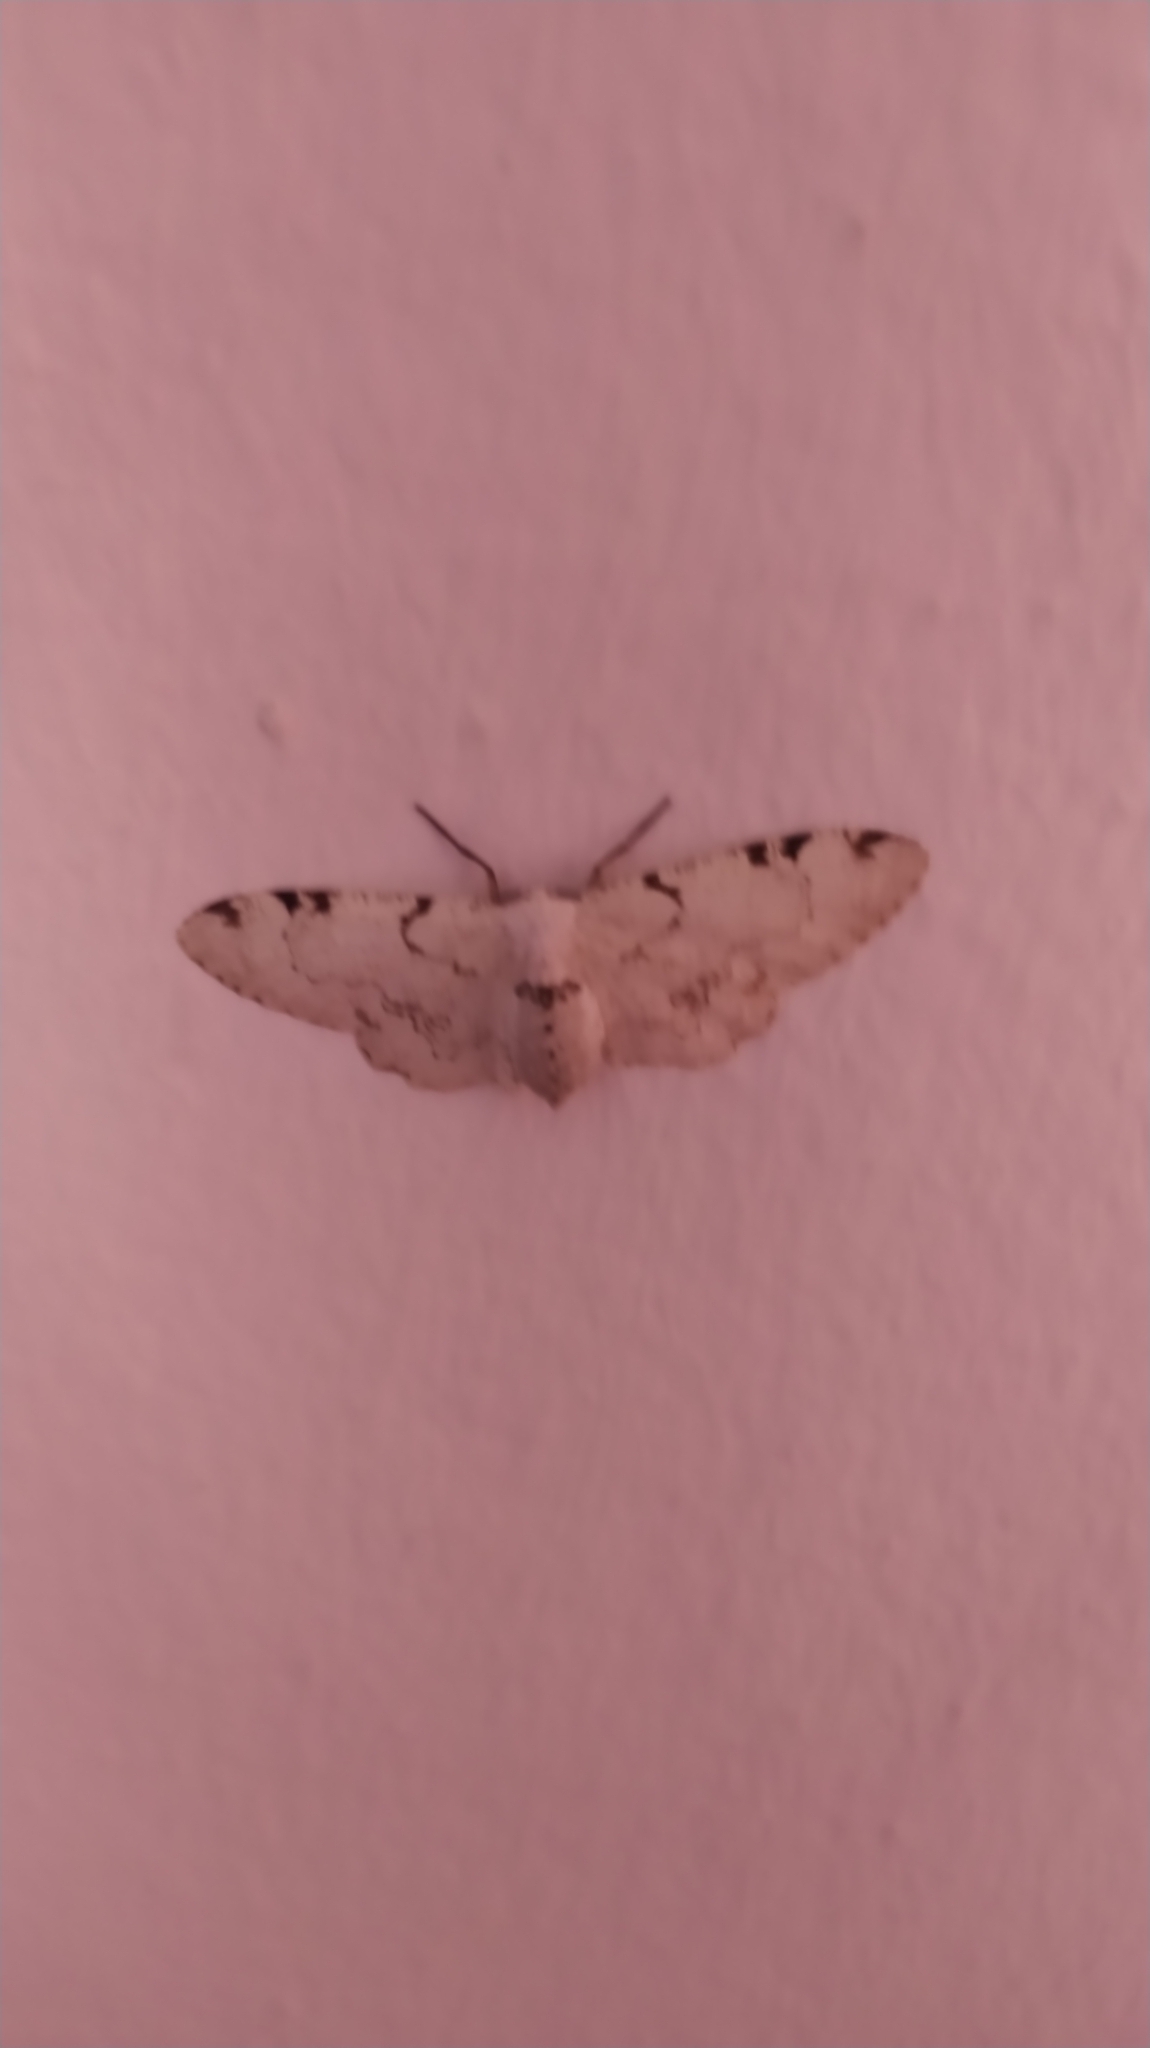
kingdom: Animalia
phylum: Arthropoda
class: Insecta
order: Lepidoptera
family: Geometridae
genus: Thyrinteina
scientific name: Thyrinteina arnobia
